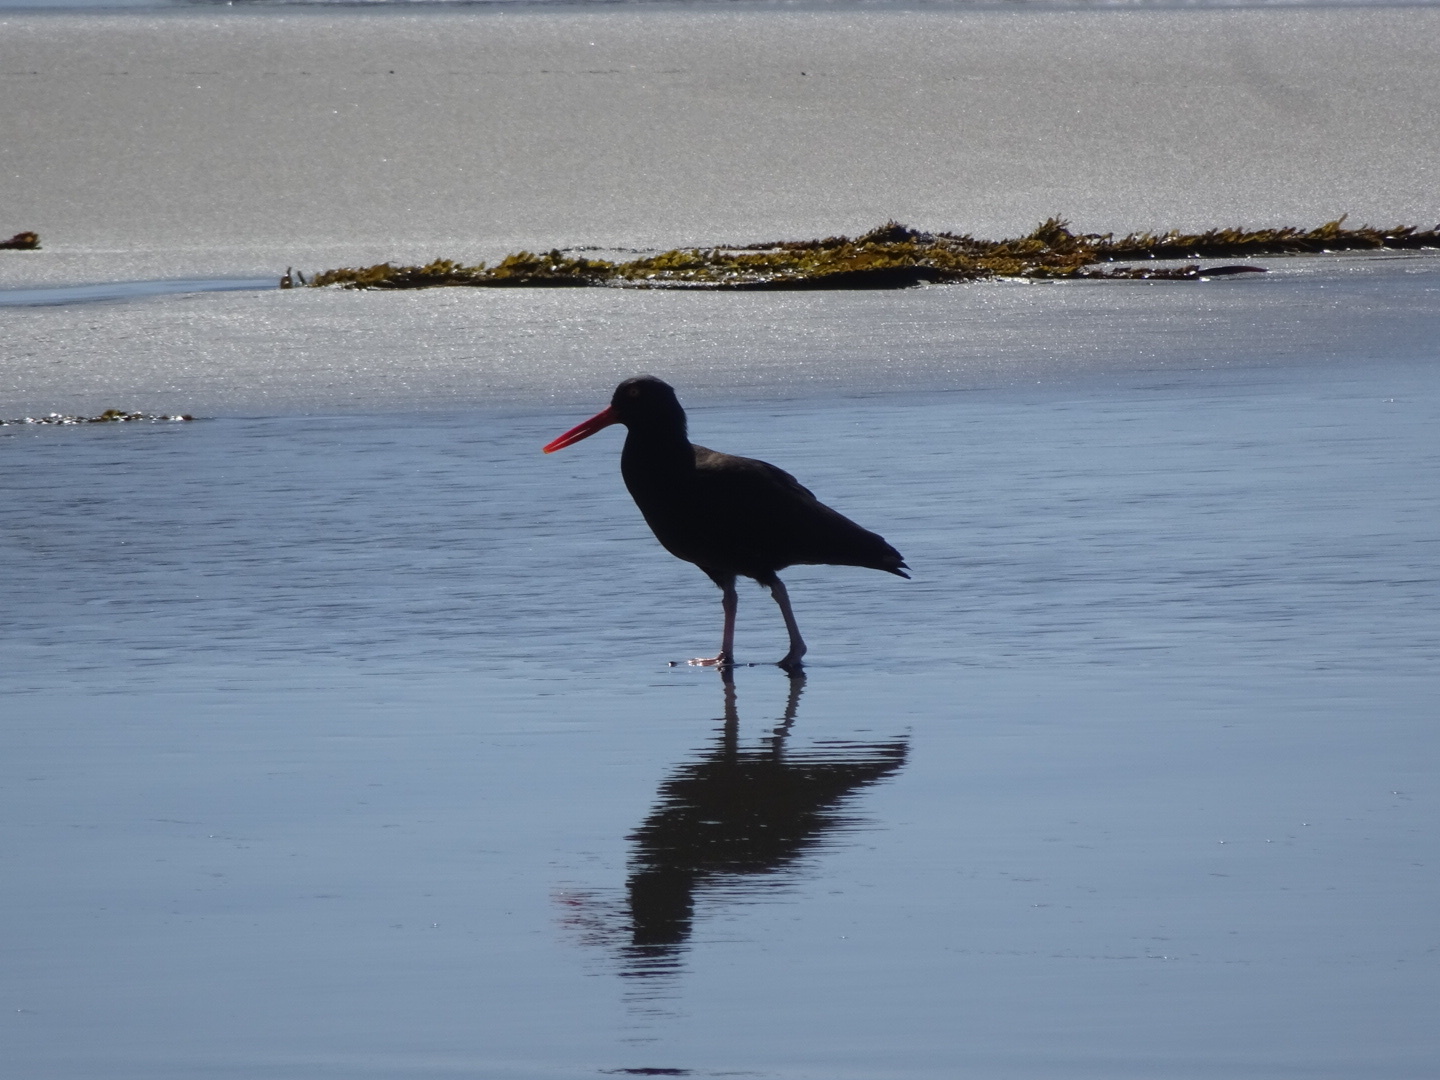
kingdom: Animalia
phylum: Chordata
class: Aves
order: Charadriiformes
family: Haematopodidae
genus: Haematopus
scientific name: Haematopus bachmani
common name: Black oystercatcher
